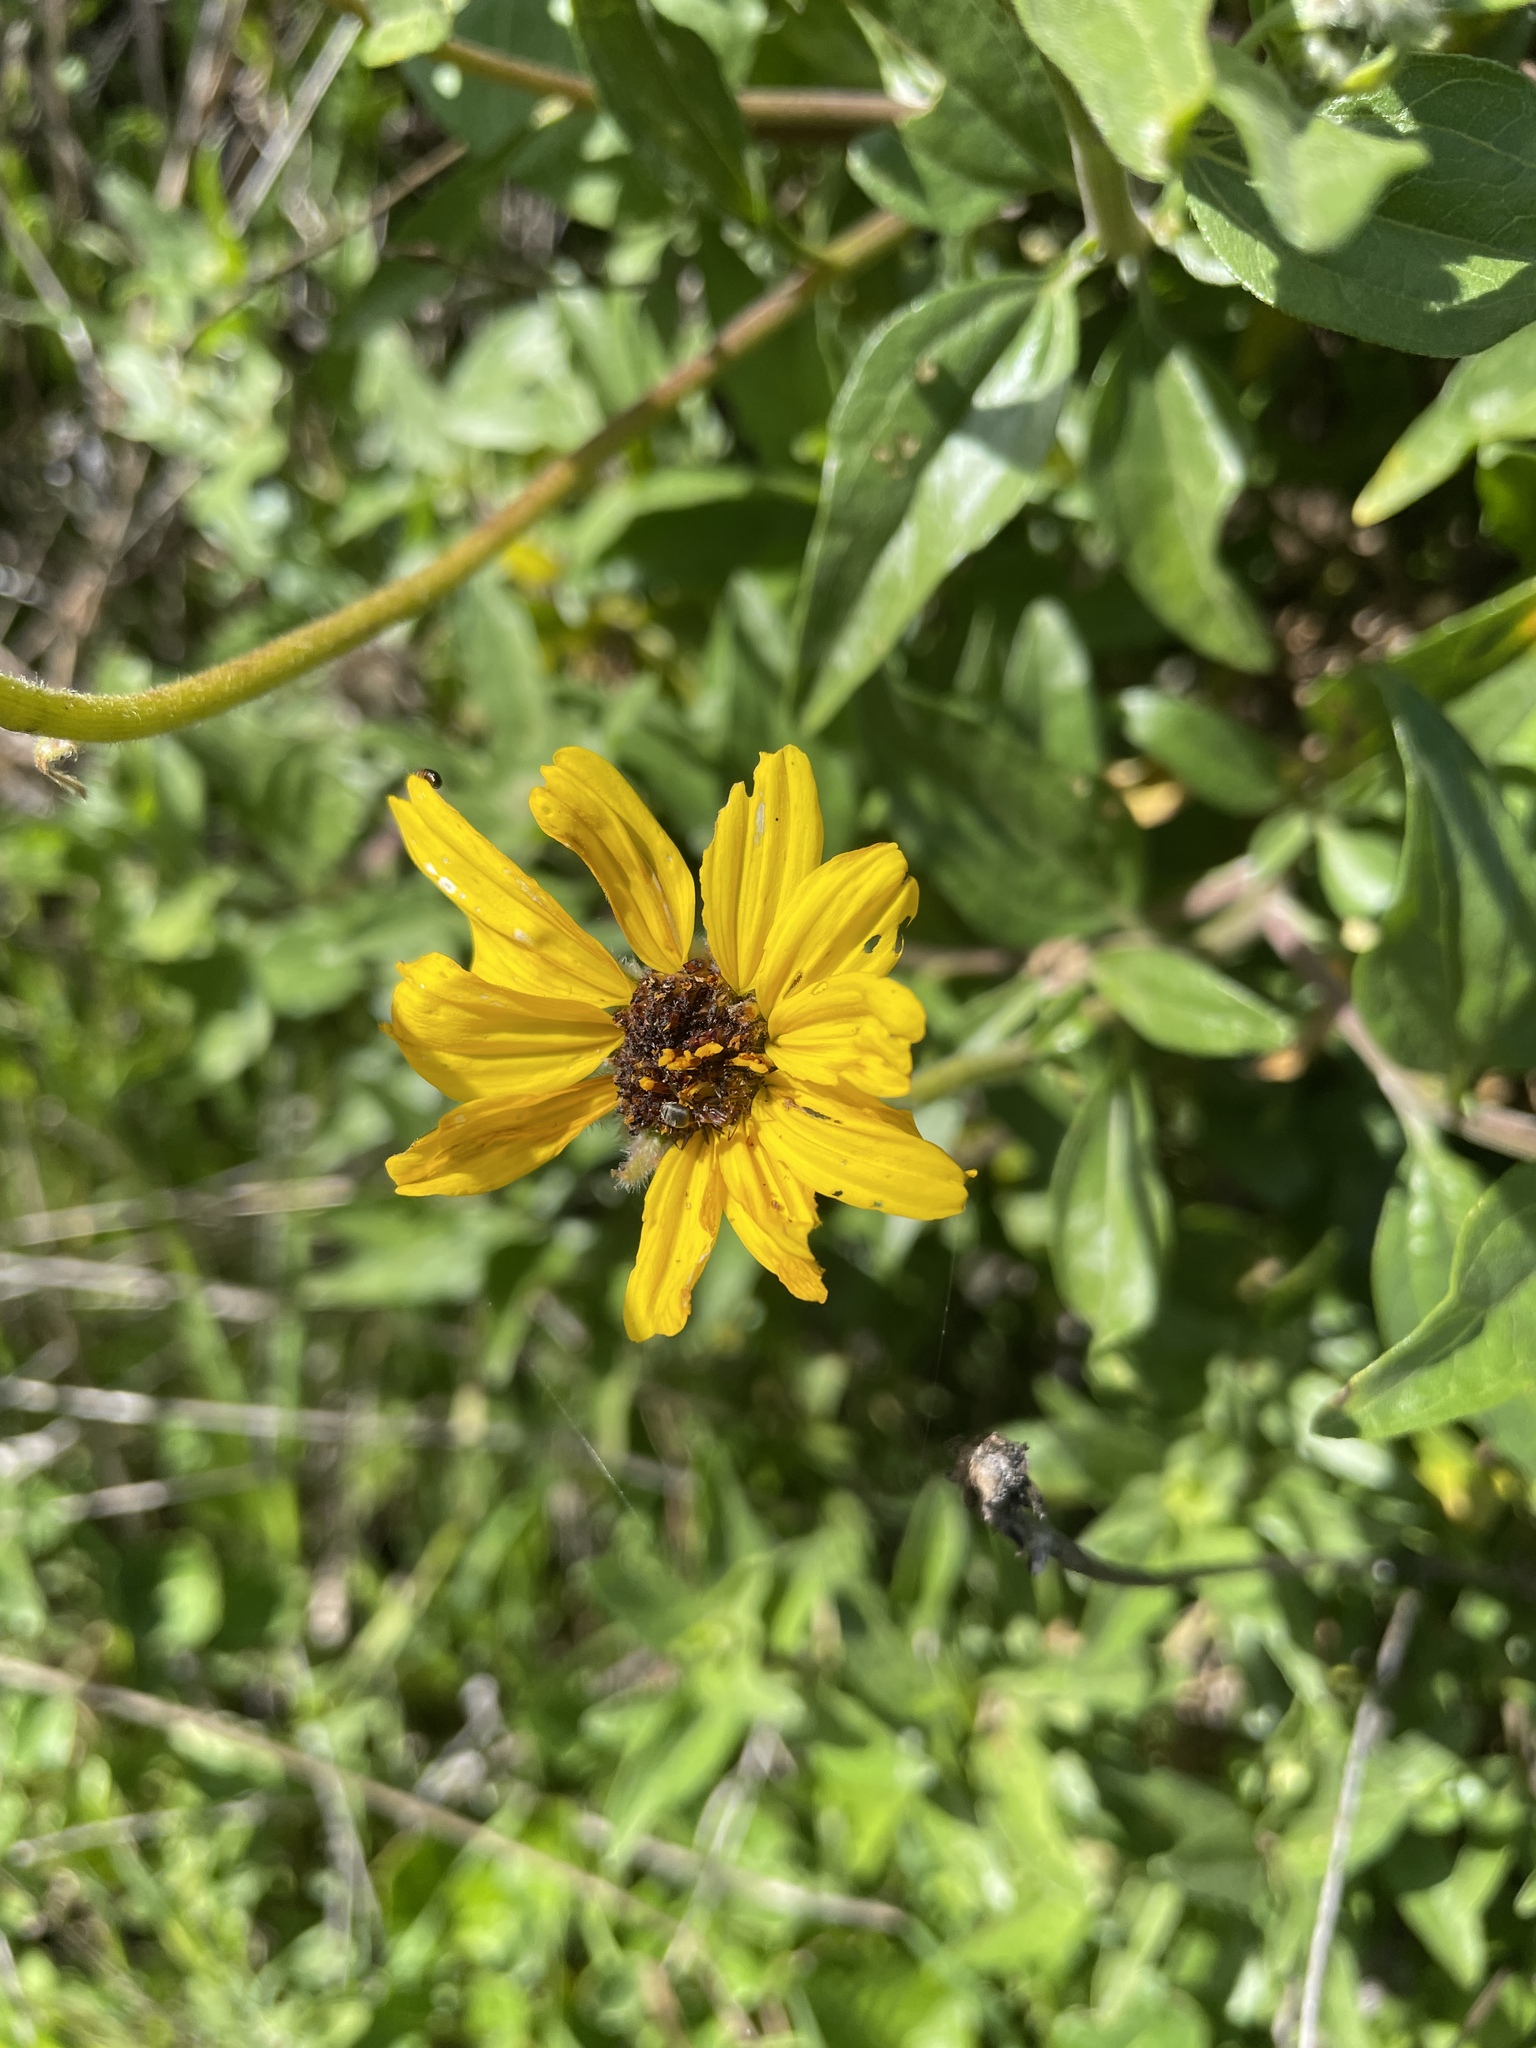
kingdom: Plantae
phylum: Tracheophyta
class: Magnoliopsida
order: Asterales
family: Asteraceae
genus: Encelia
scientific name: Encelia californica
